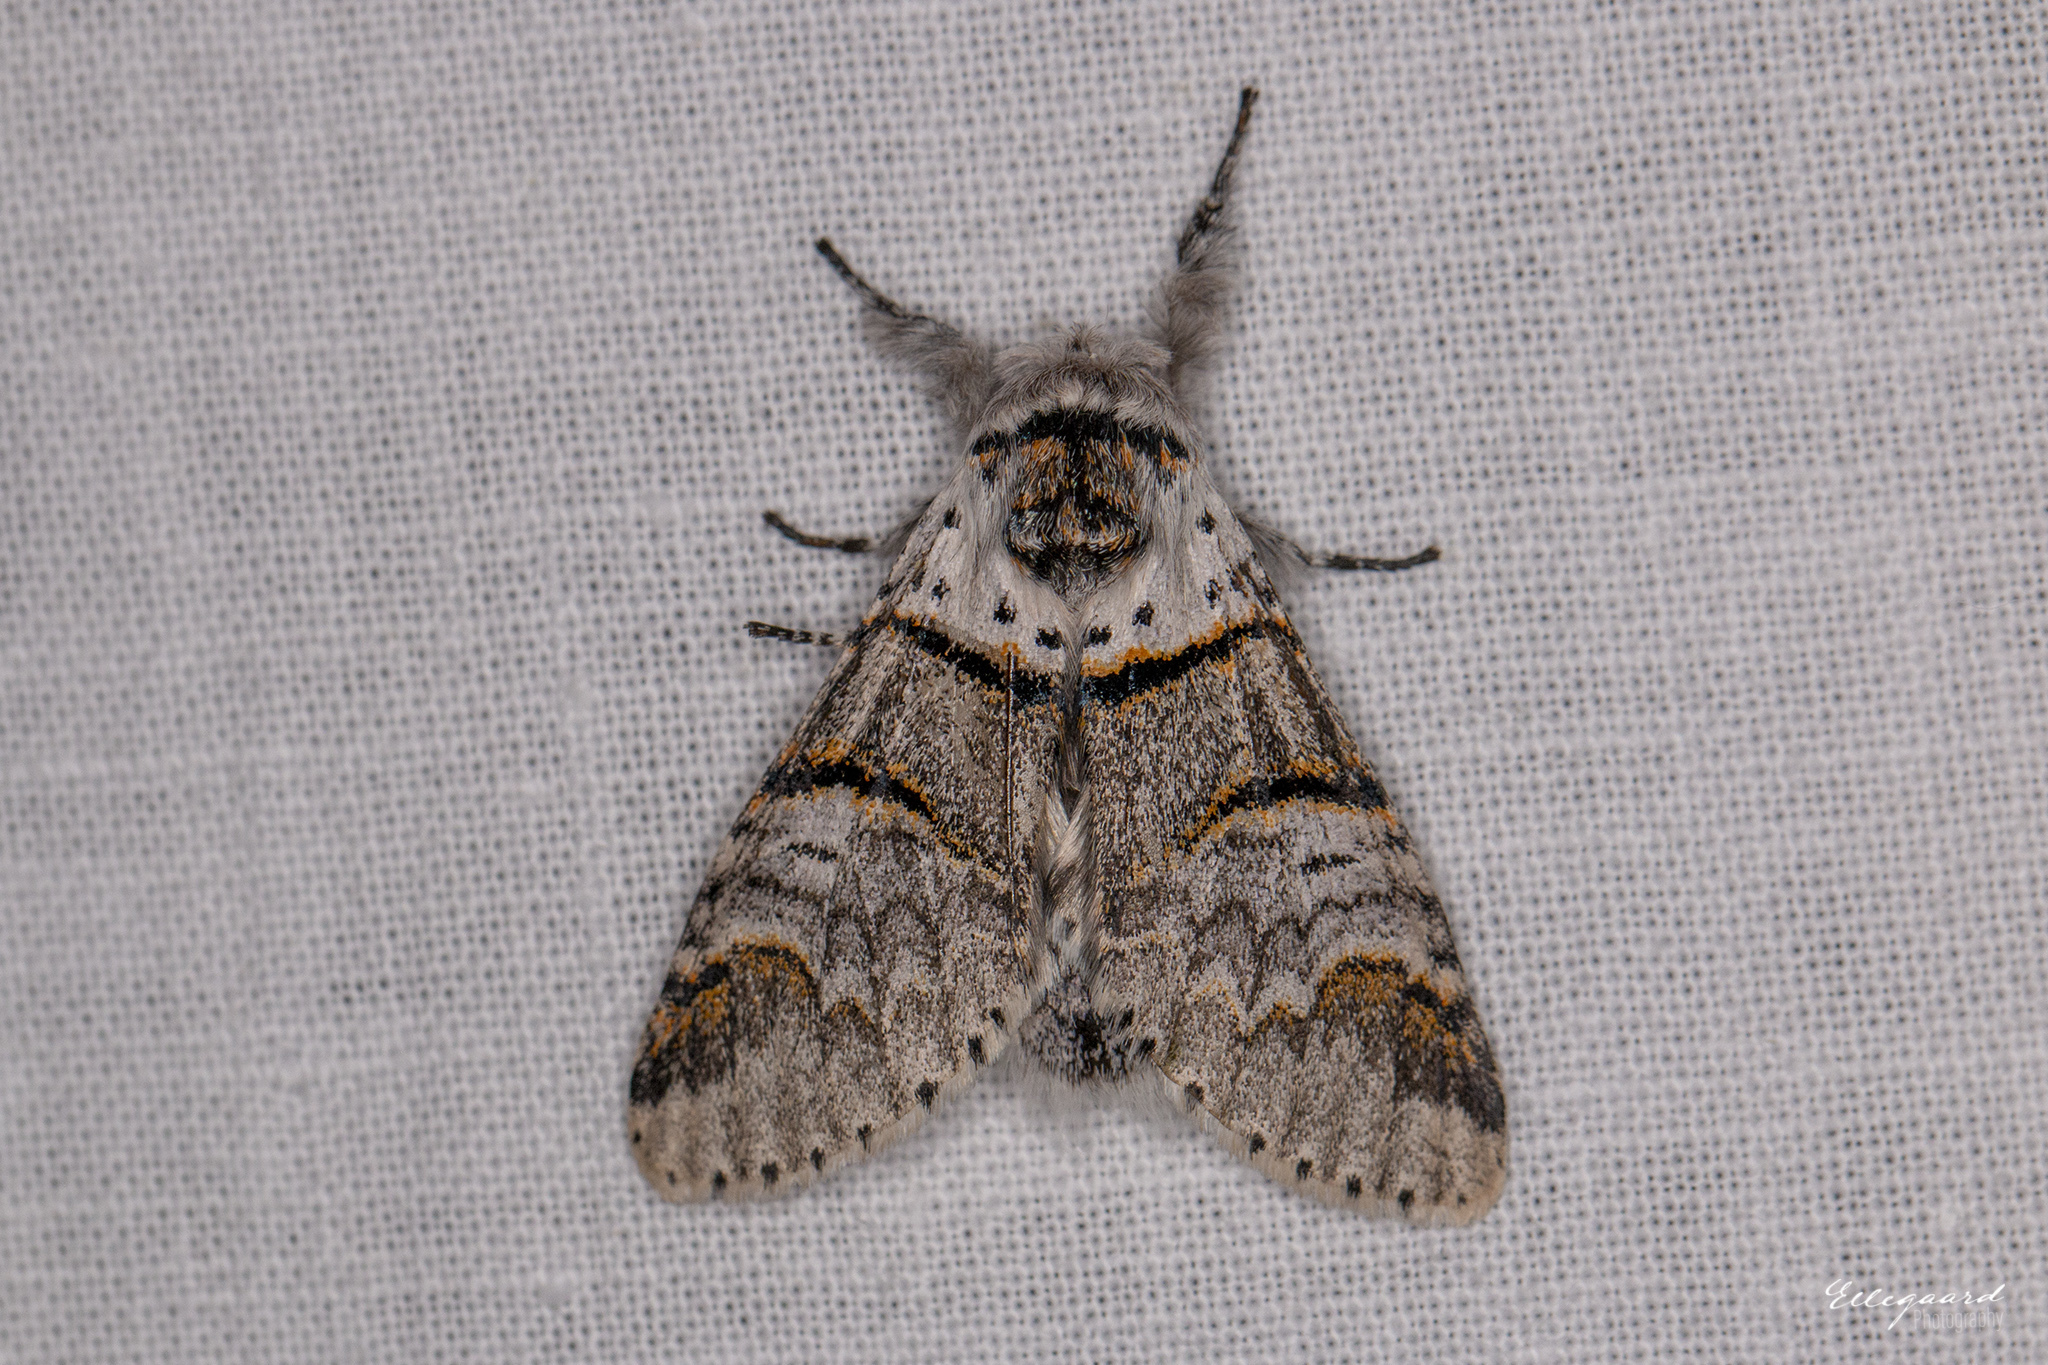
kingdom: Animalia
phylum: Arthropoda
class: Insecta
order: Lepidoptera
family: Notodontidae
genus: Furcula
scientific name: Furcula bifida
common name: Poplar kitten
